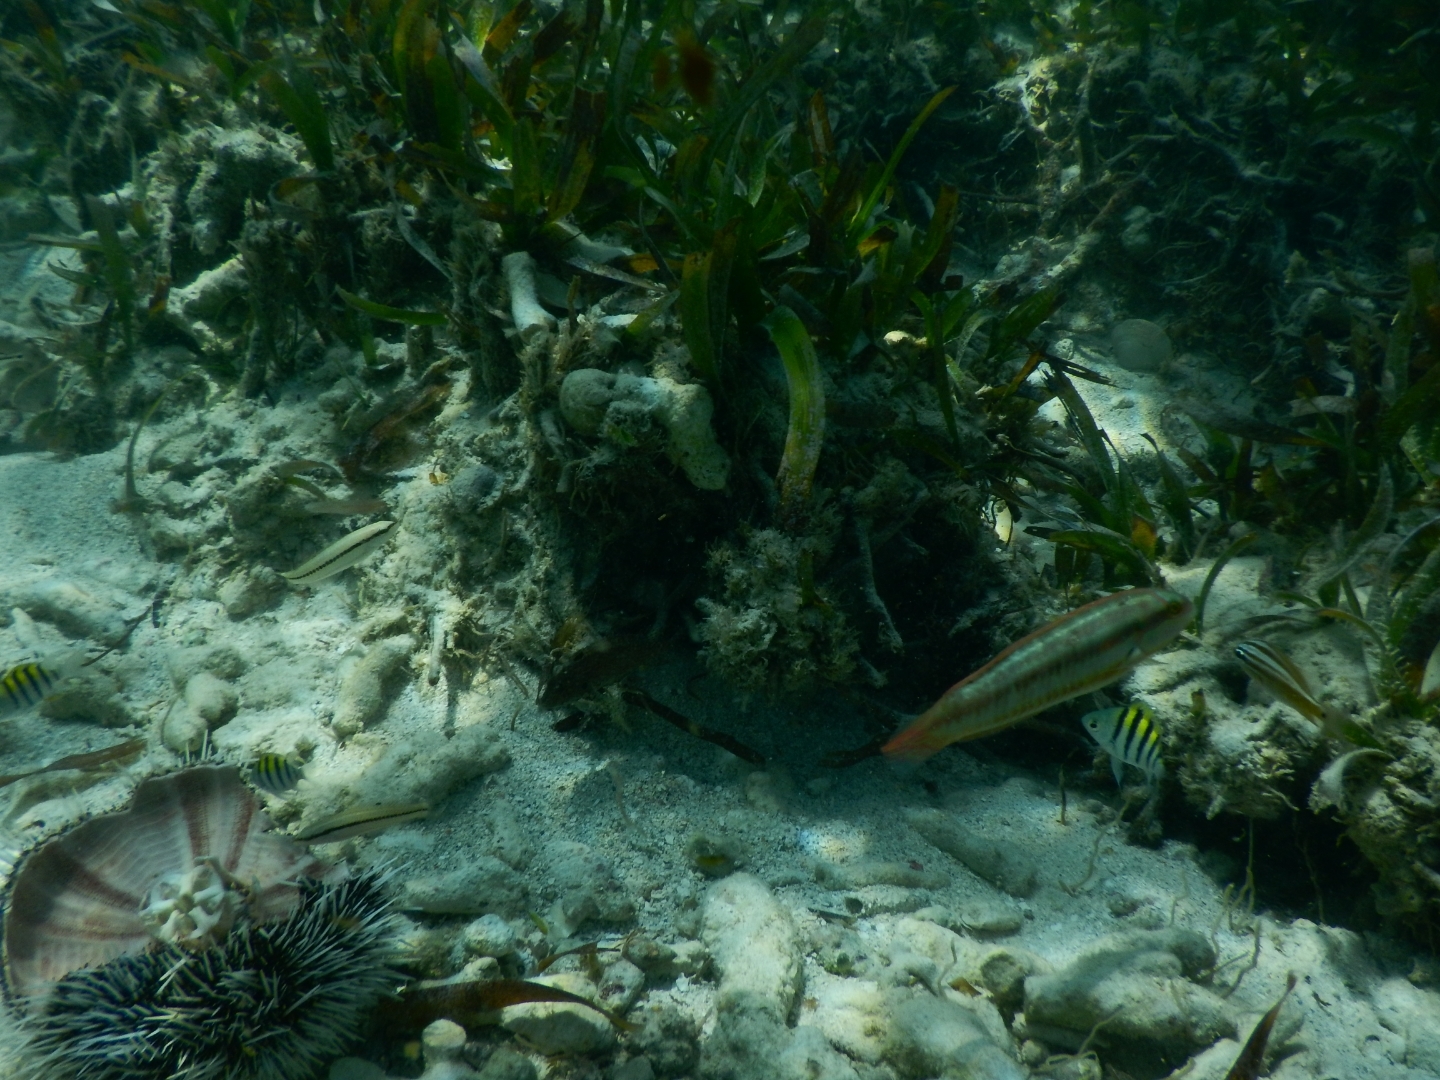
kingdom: Animalia
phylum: Chordata
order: Perciformes
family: Haemulidae
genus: Haemulon
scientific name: Haemulon plumierii
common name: White grunt
